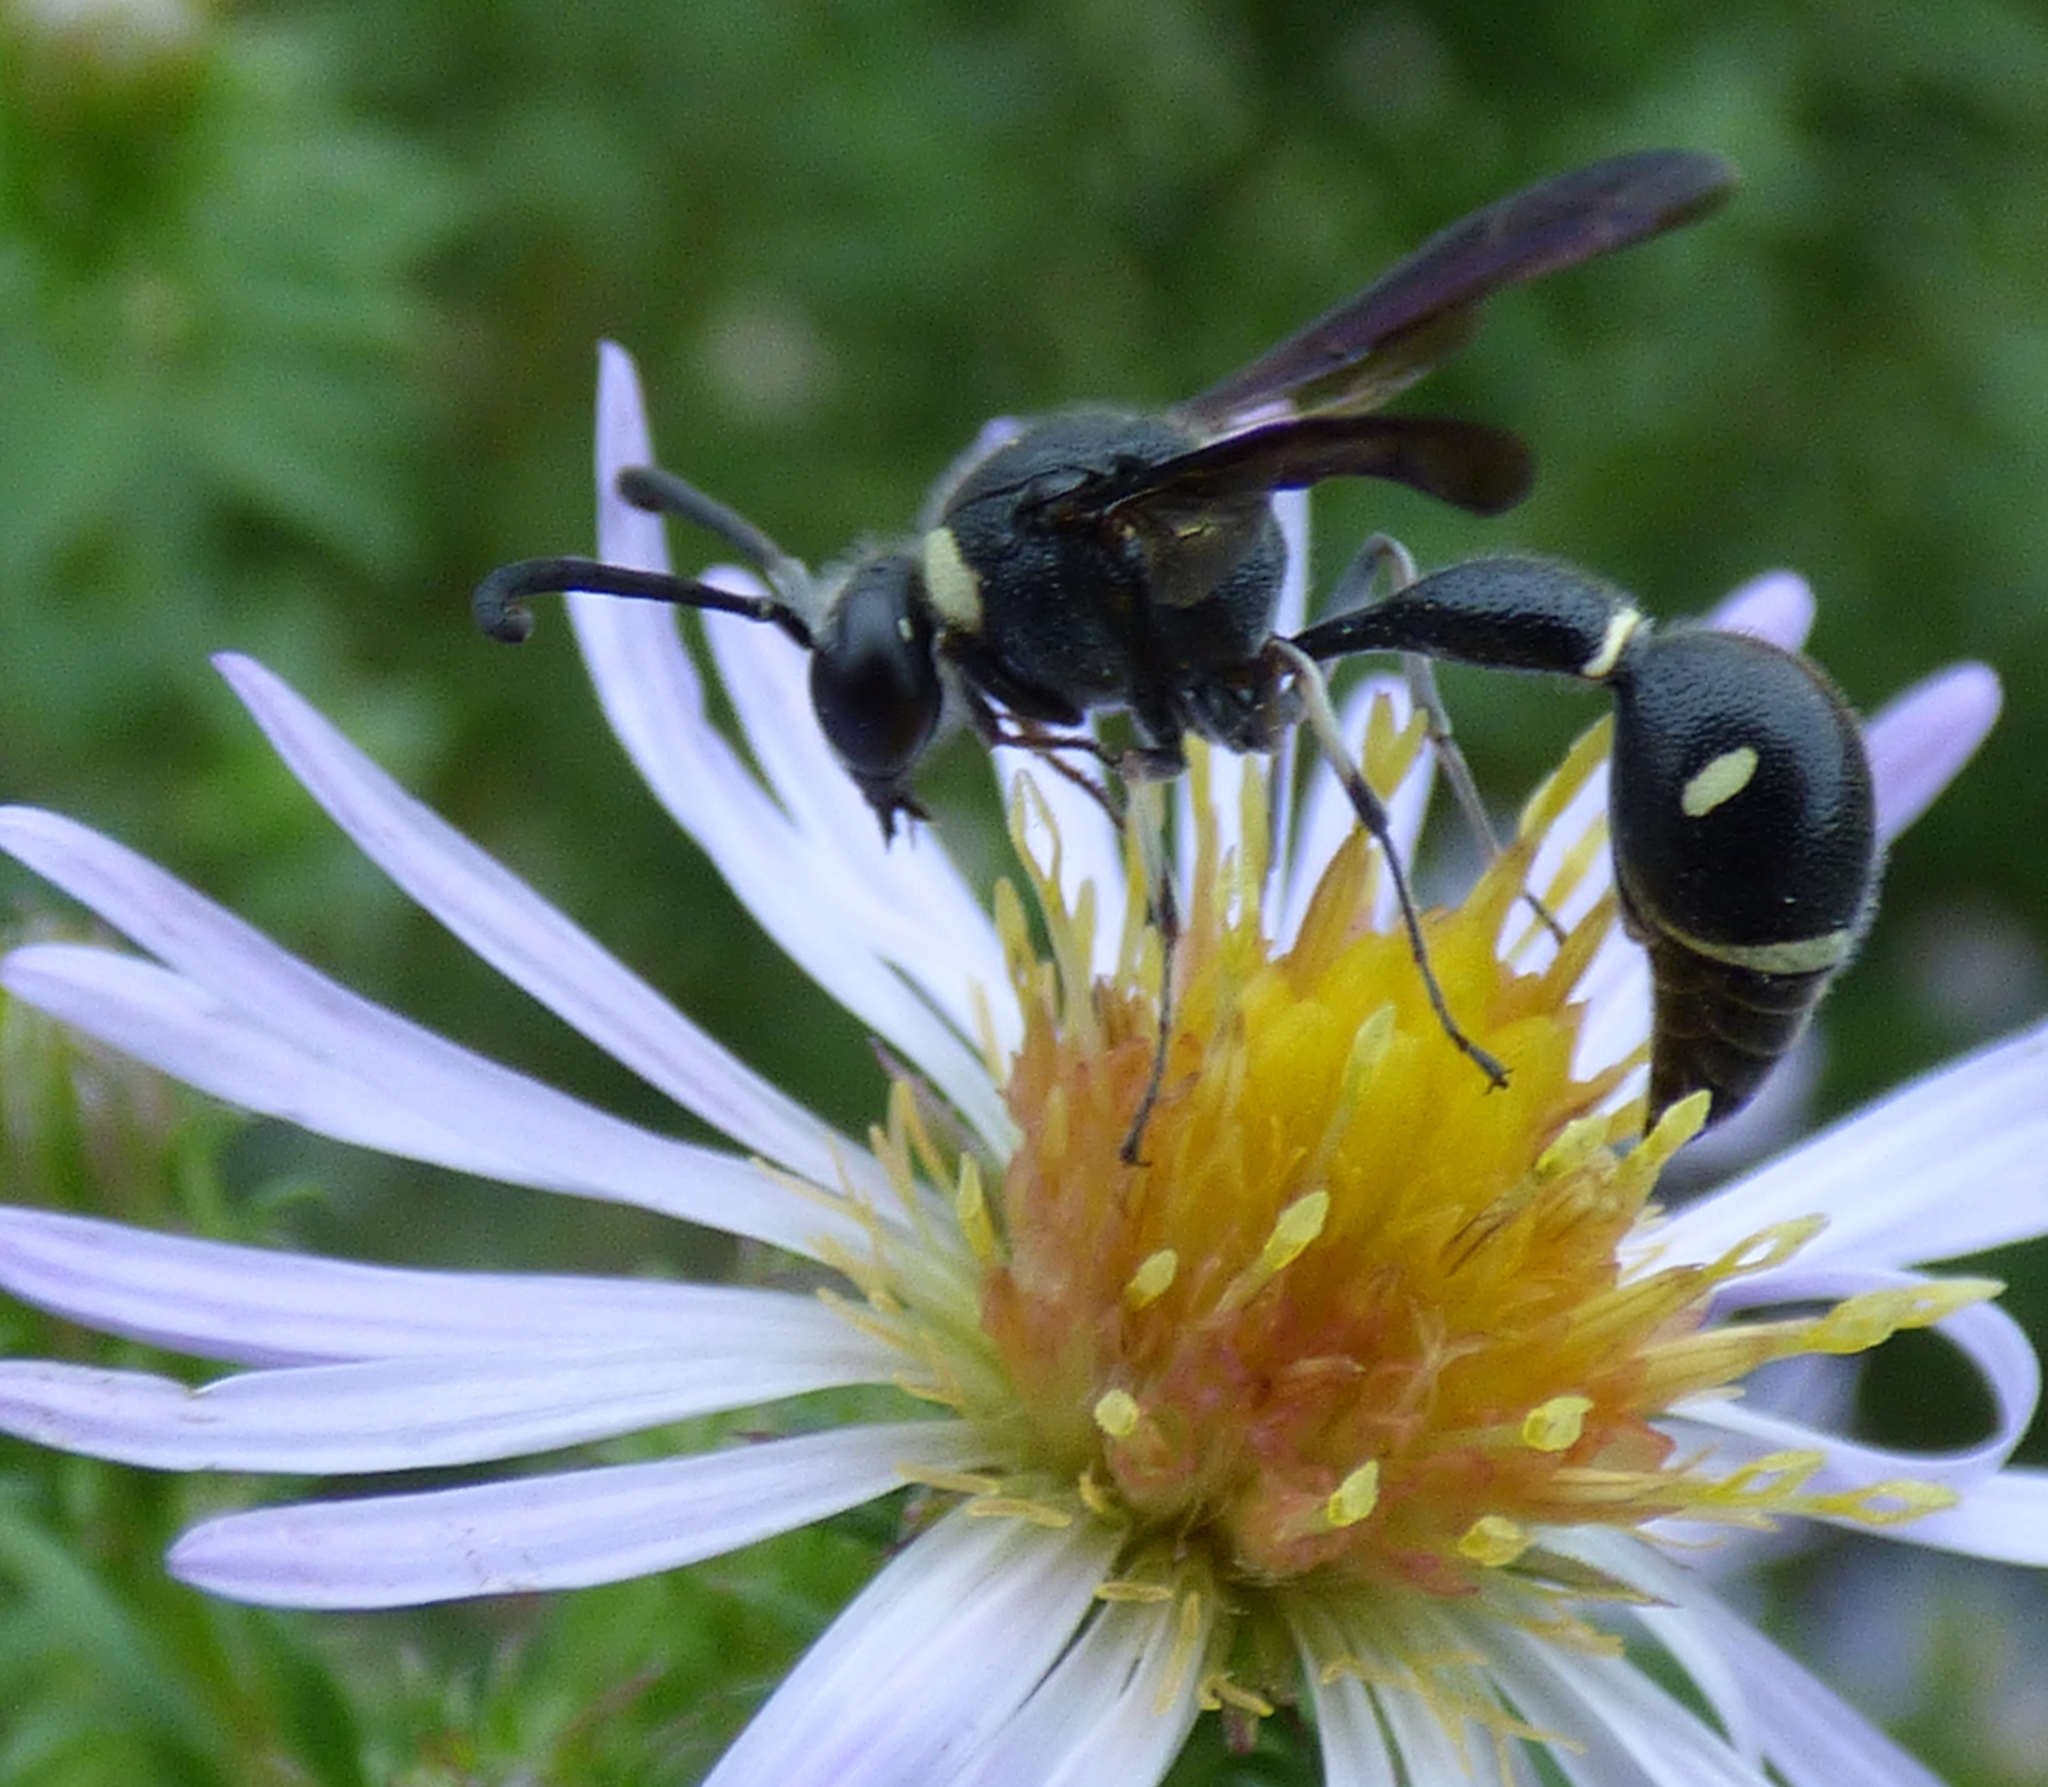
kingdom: Animalia
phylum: Arthropoda
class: Insecta
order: Hymenoptera
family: Vespidae
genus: Eumenes
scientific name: Eumenes fraternus
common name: Fraternal potter wasp
